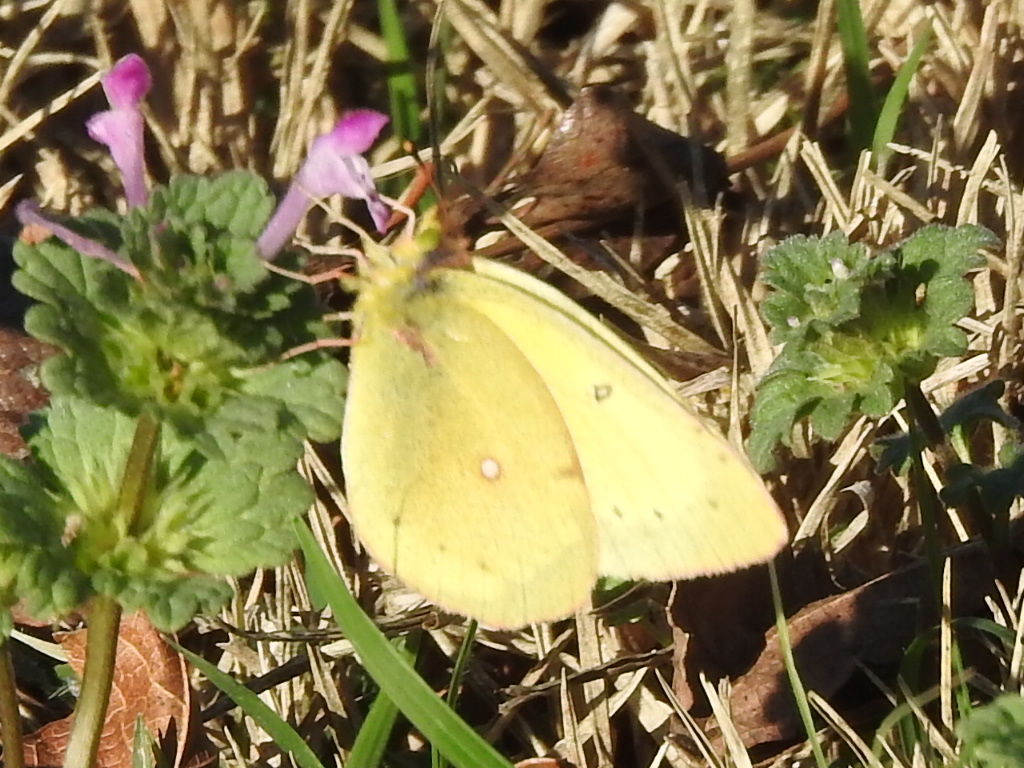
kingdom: Animalia
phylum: Arthropoda
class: Insecta
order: Lepidoptera
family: Pieridae
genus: Colias
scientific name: Colias eurytheme
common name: Alfalfa butterfly
